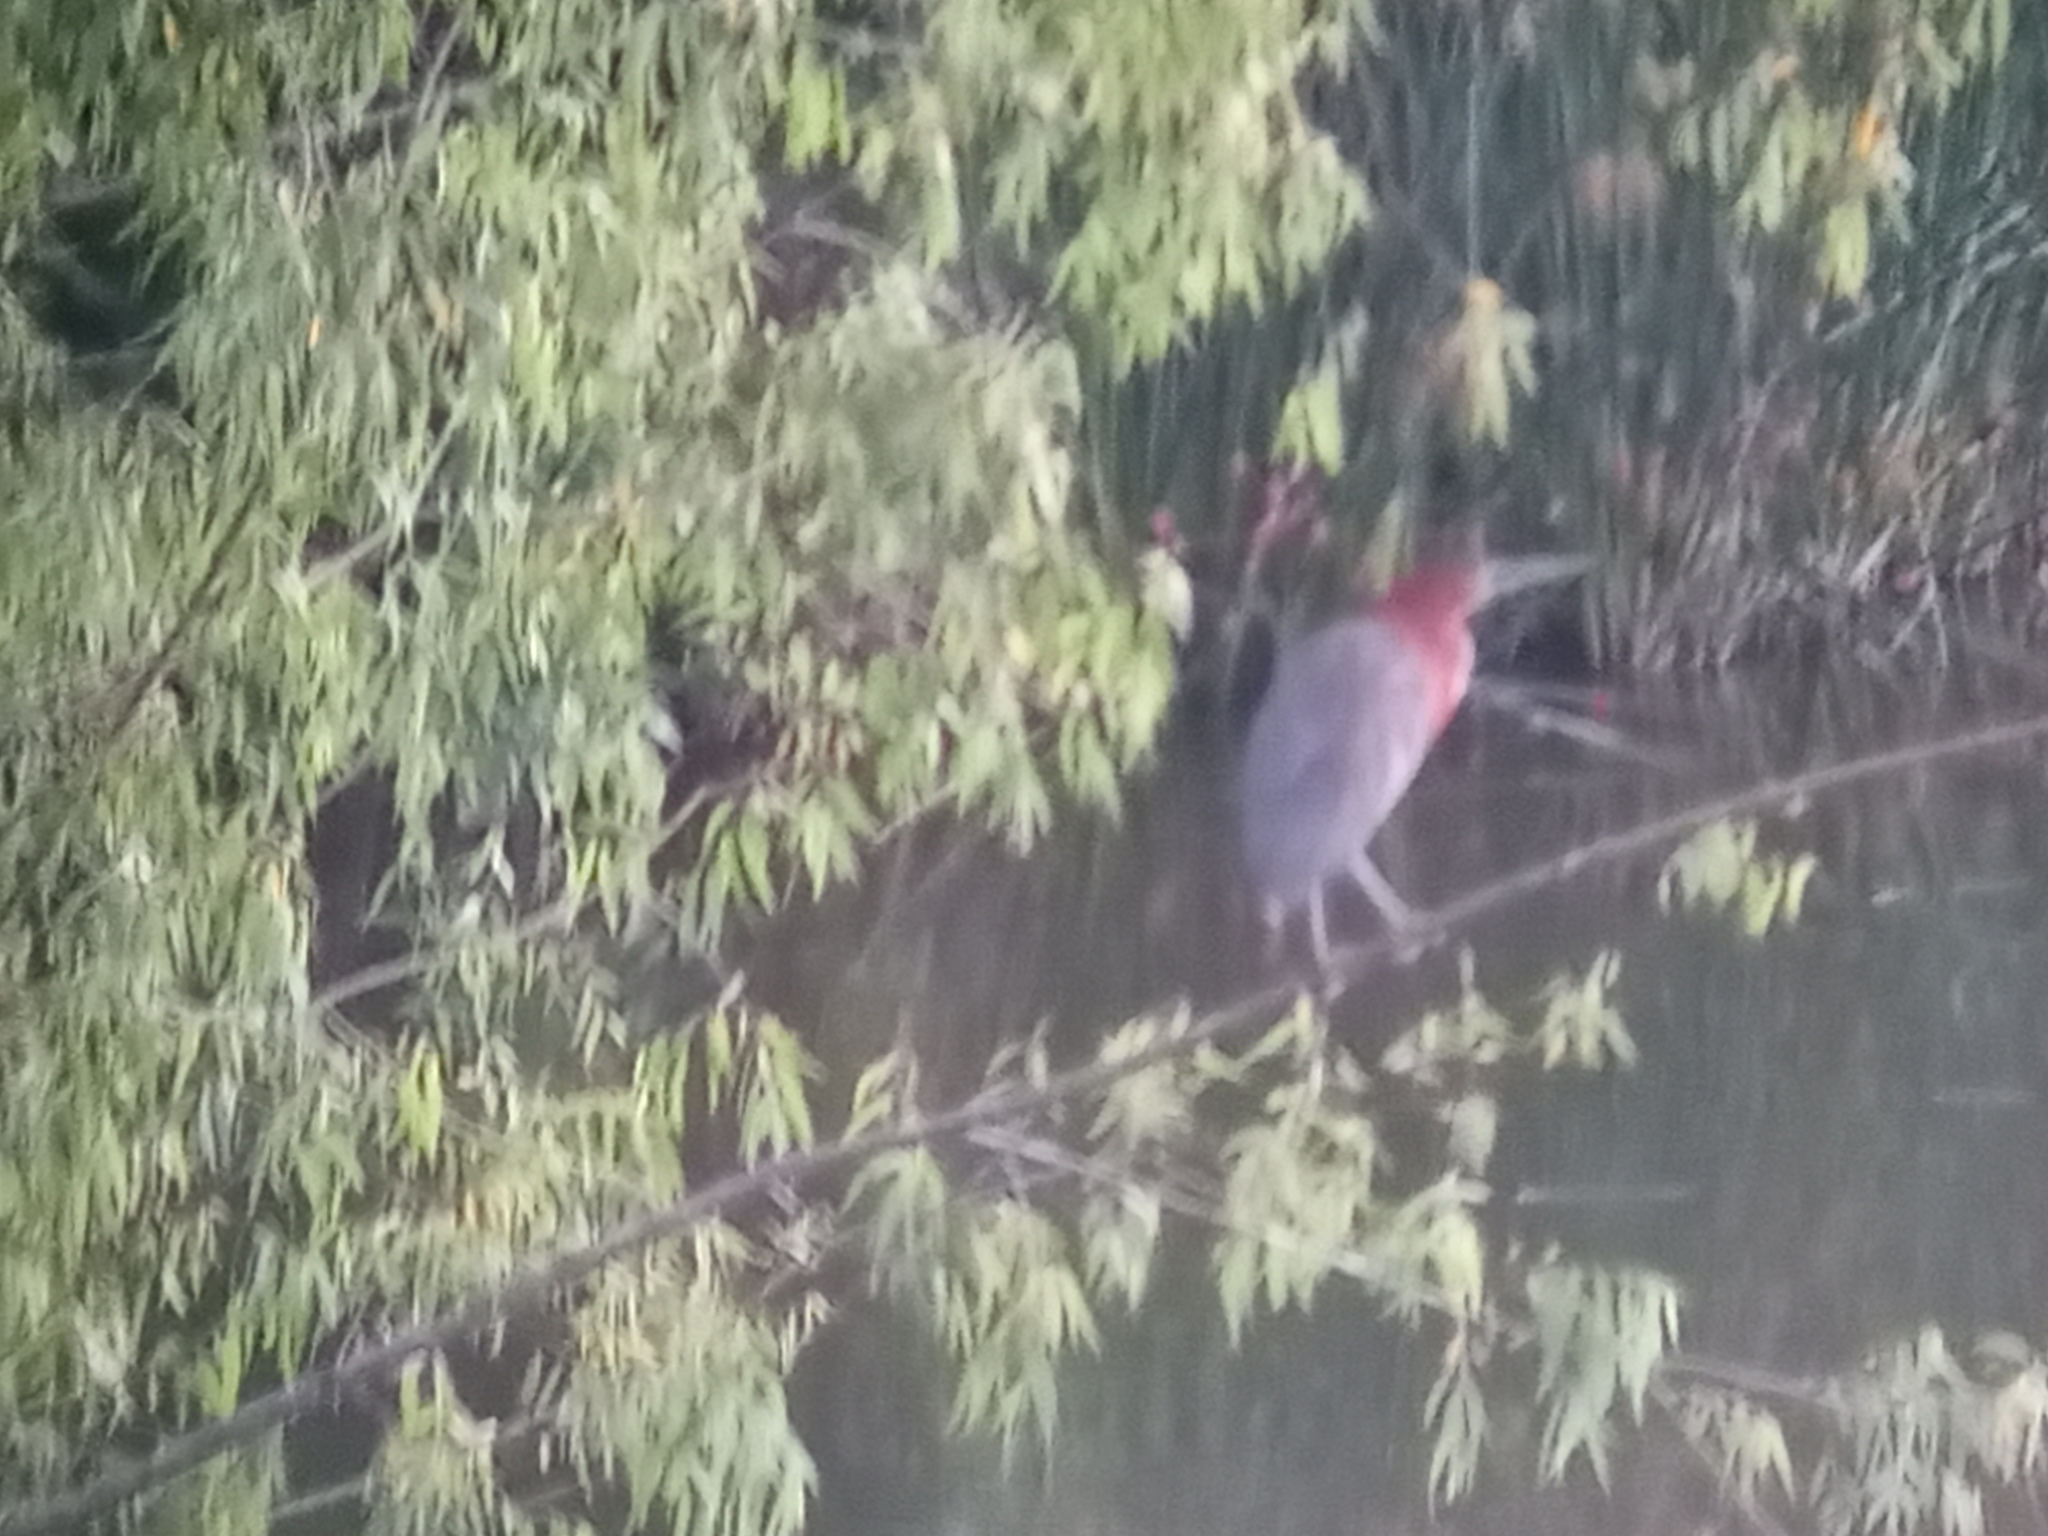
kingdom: Animalia
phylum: Chordata
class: Aves
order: Pelecaniformes
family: Ardeidae
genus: Tigrisoma
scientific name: Tigrisoma lineatum
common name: Rufescent tiger-heron
